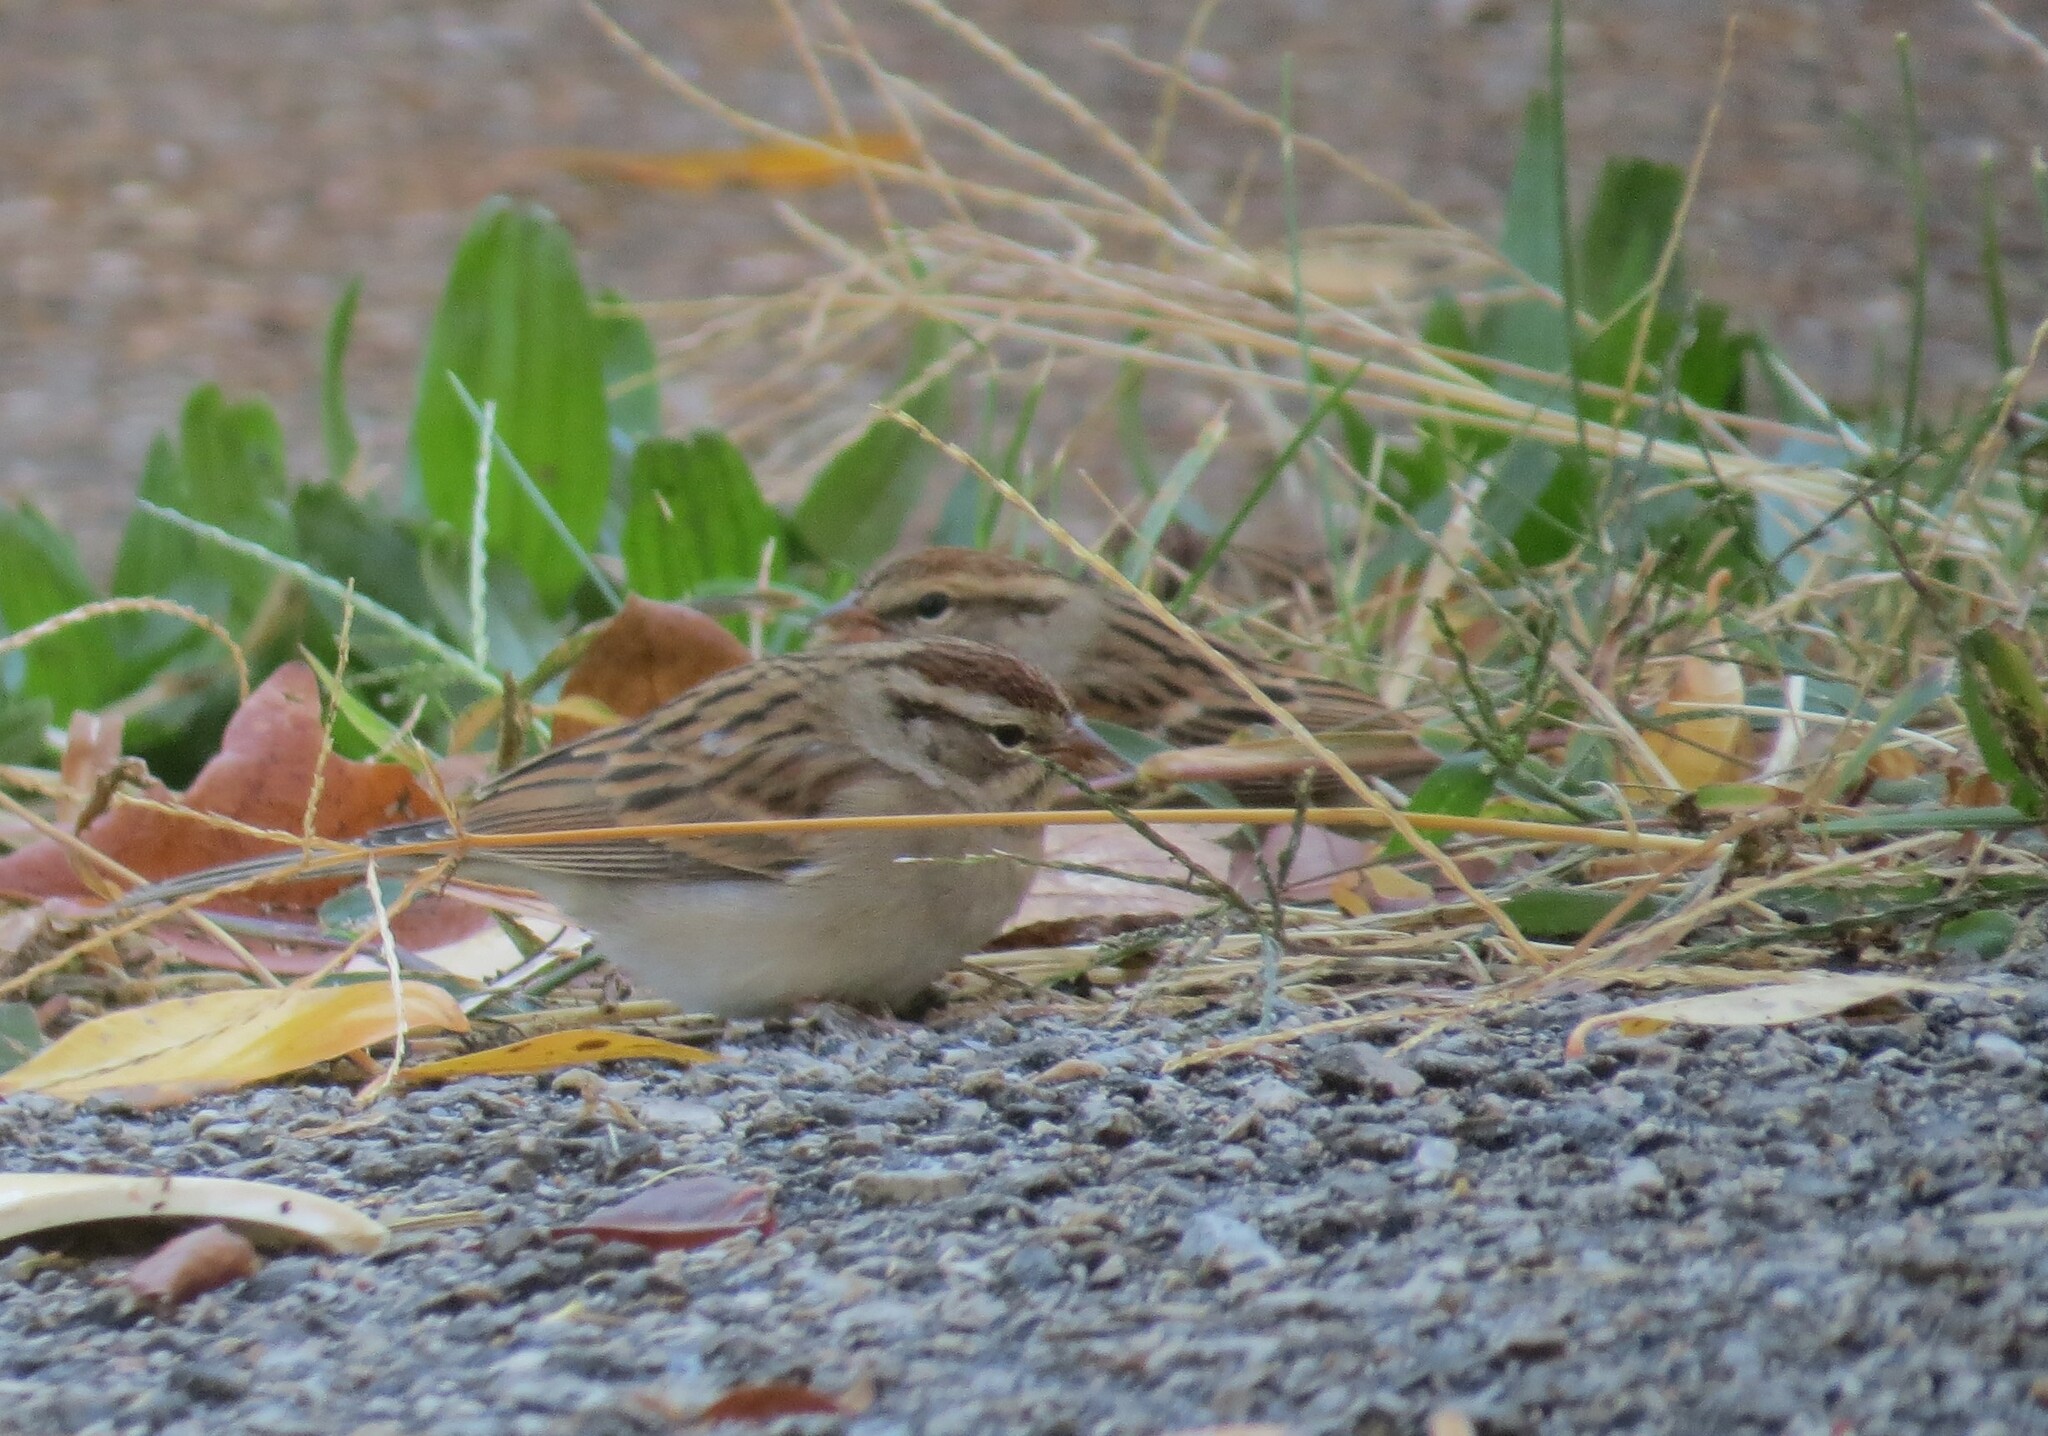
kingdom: Animalia
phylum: Chordata
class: Aves
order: Passeriformes
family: Passerellidae
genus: Spizella
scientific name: Spizella passerina
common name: Chipping sparrow
